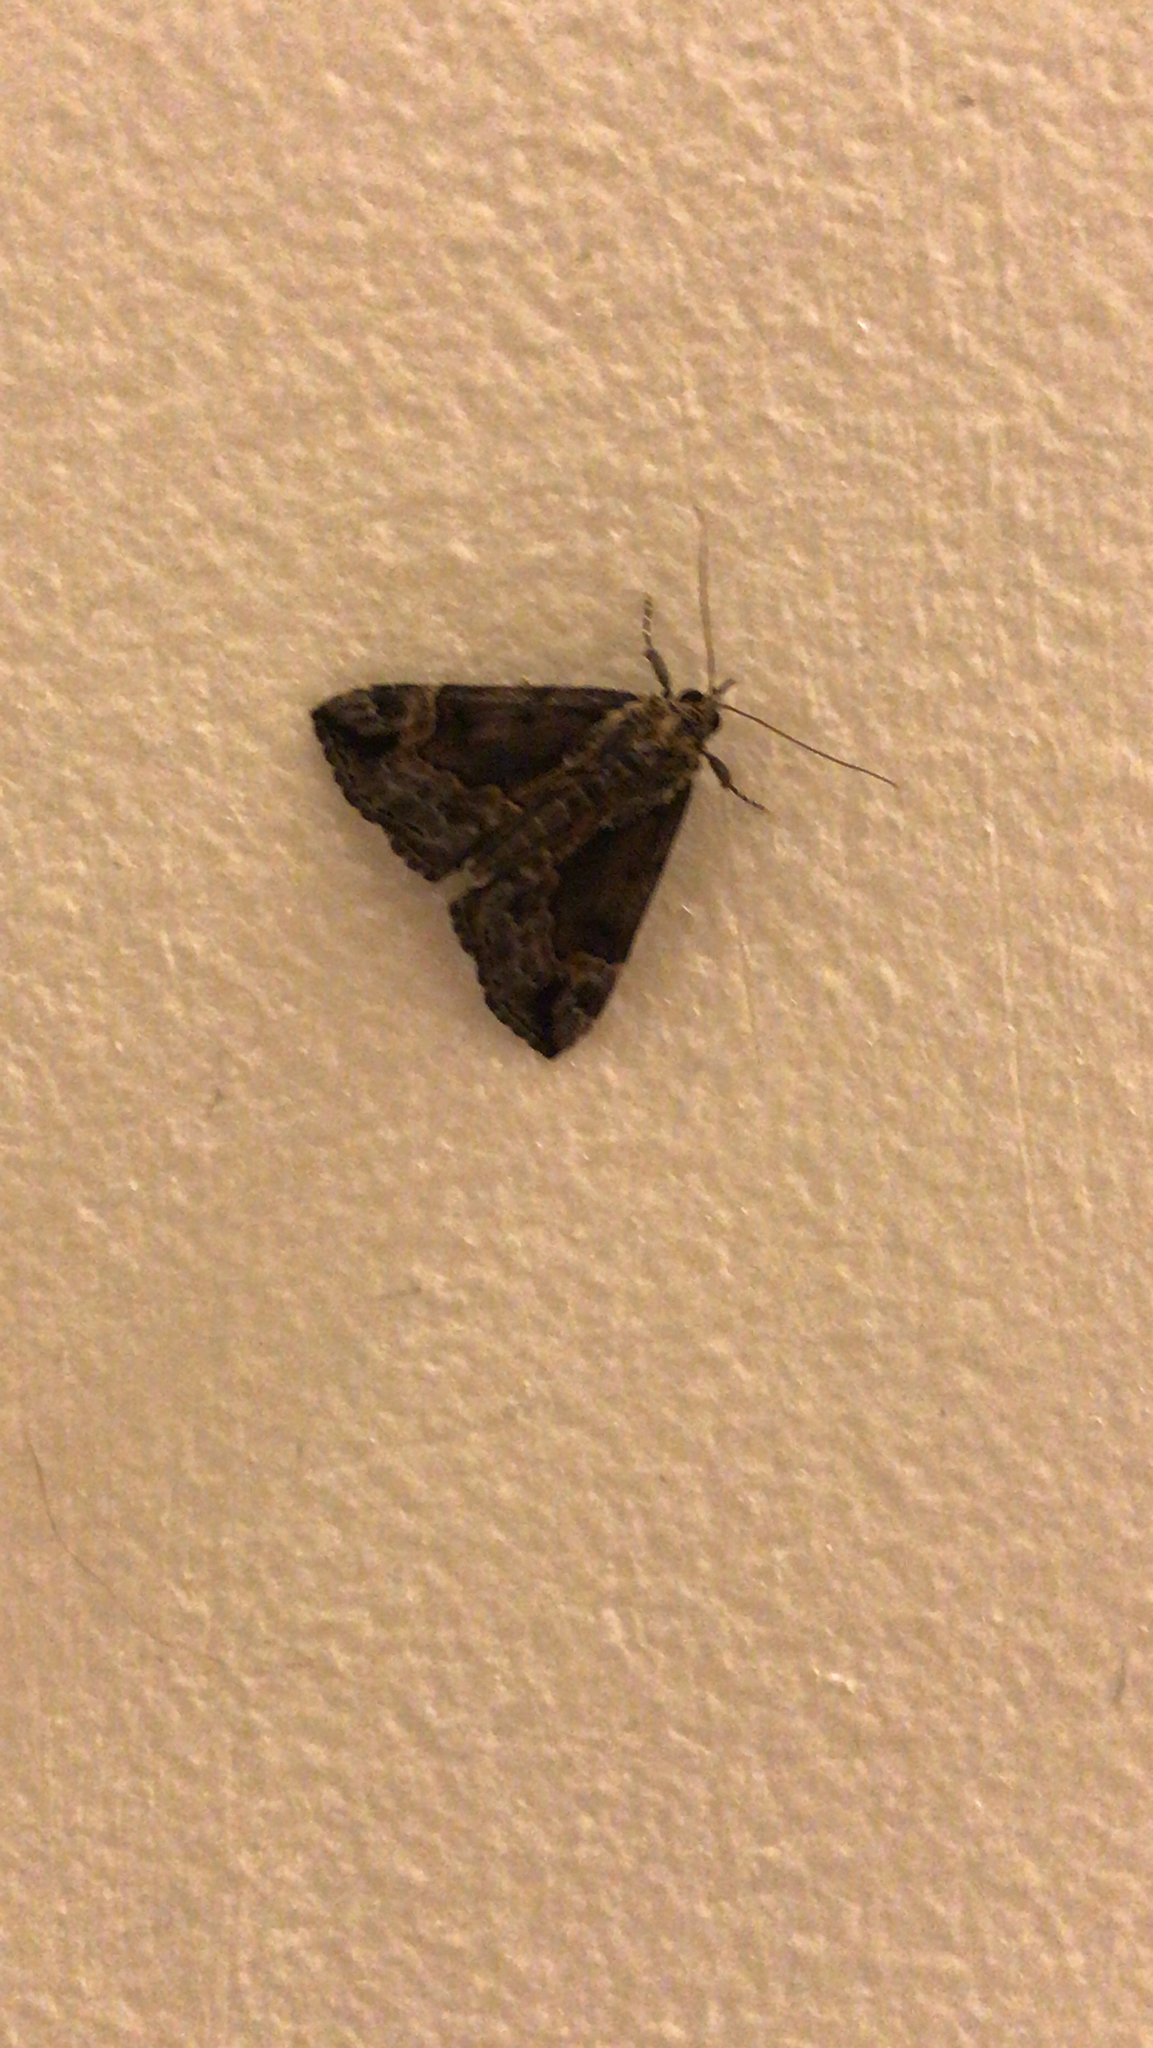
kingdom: Animalia
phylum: Arthropoda
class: Insecta
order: Lepidoptera
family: Erebidae
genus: Hypena
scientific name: Hypena palparia
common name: Mottled bomolocha moth
